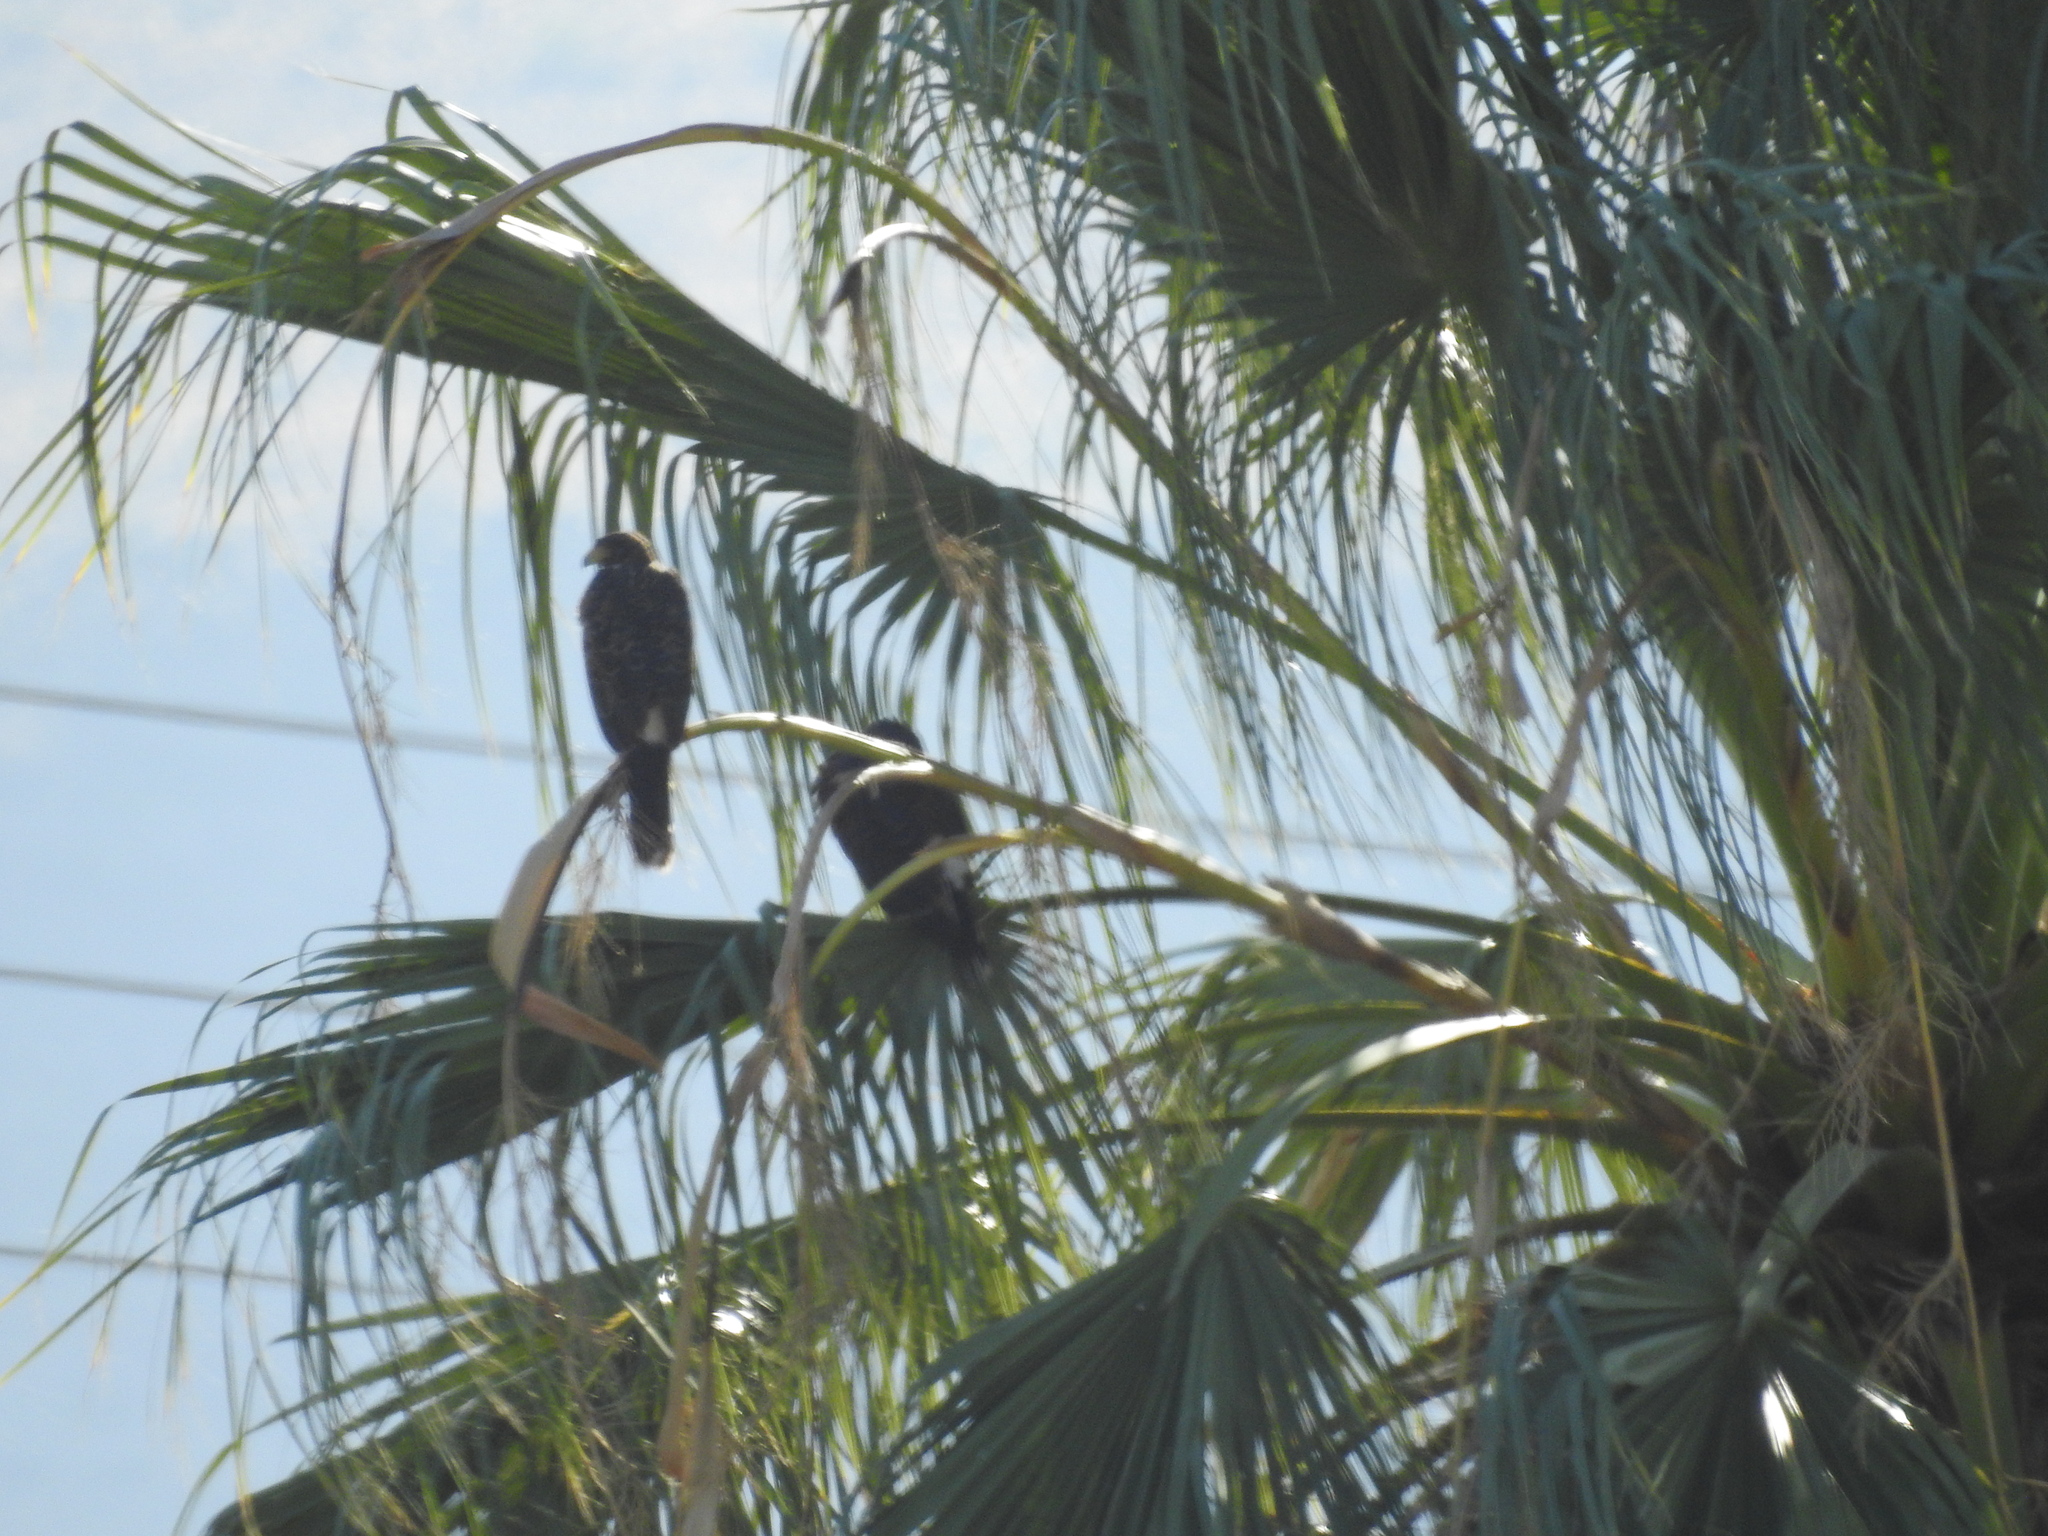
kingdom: Animalia
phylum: Chordata
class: Aves
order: Accipitriformes
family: Accipitridae
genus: Parabuteo
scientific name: Parabuteo unicinctus
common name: Harris's hawk
